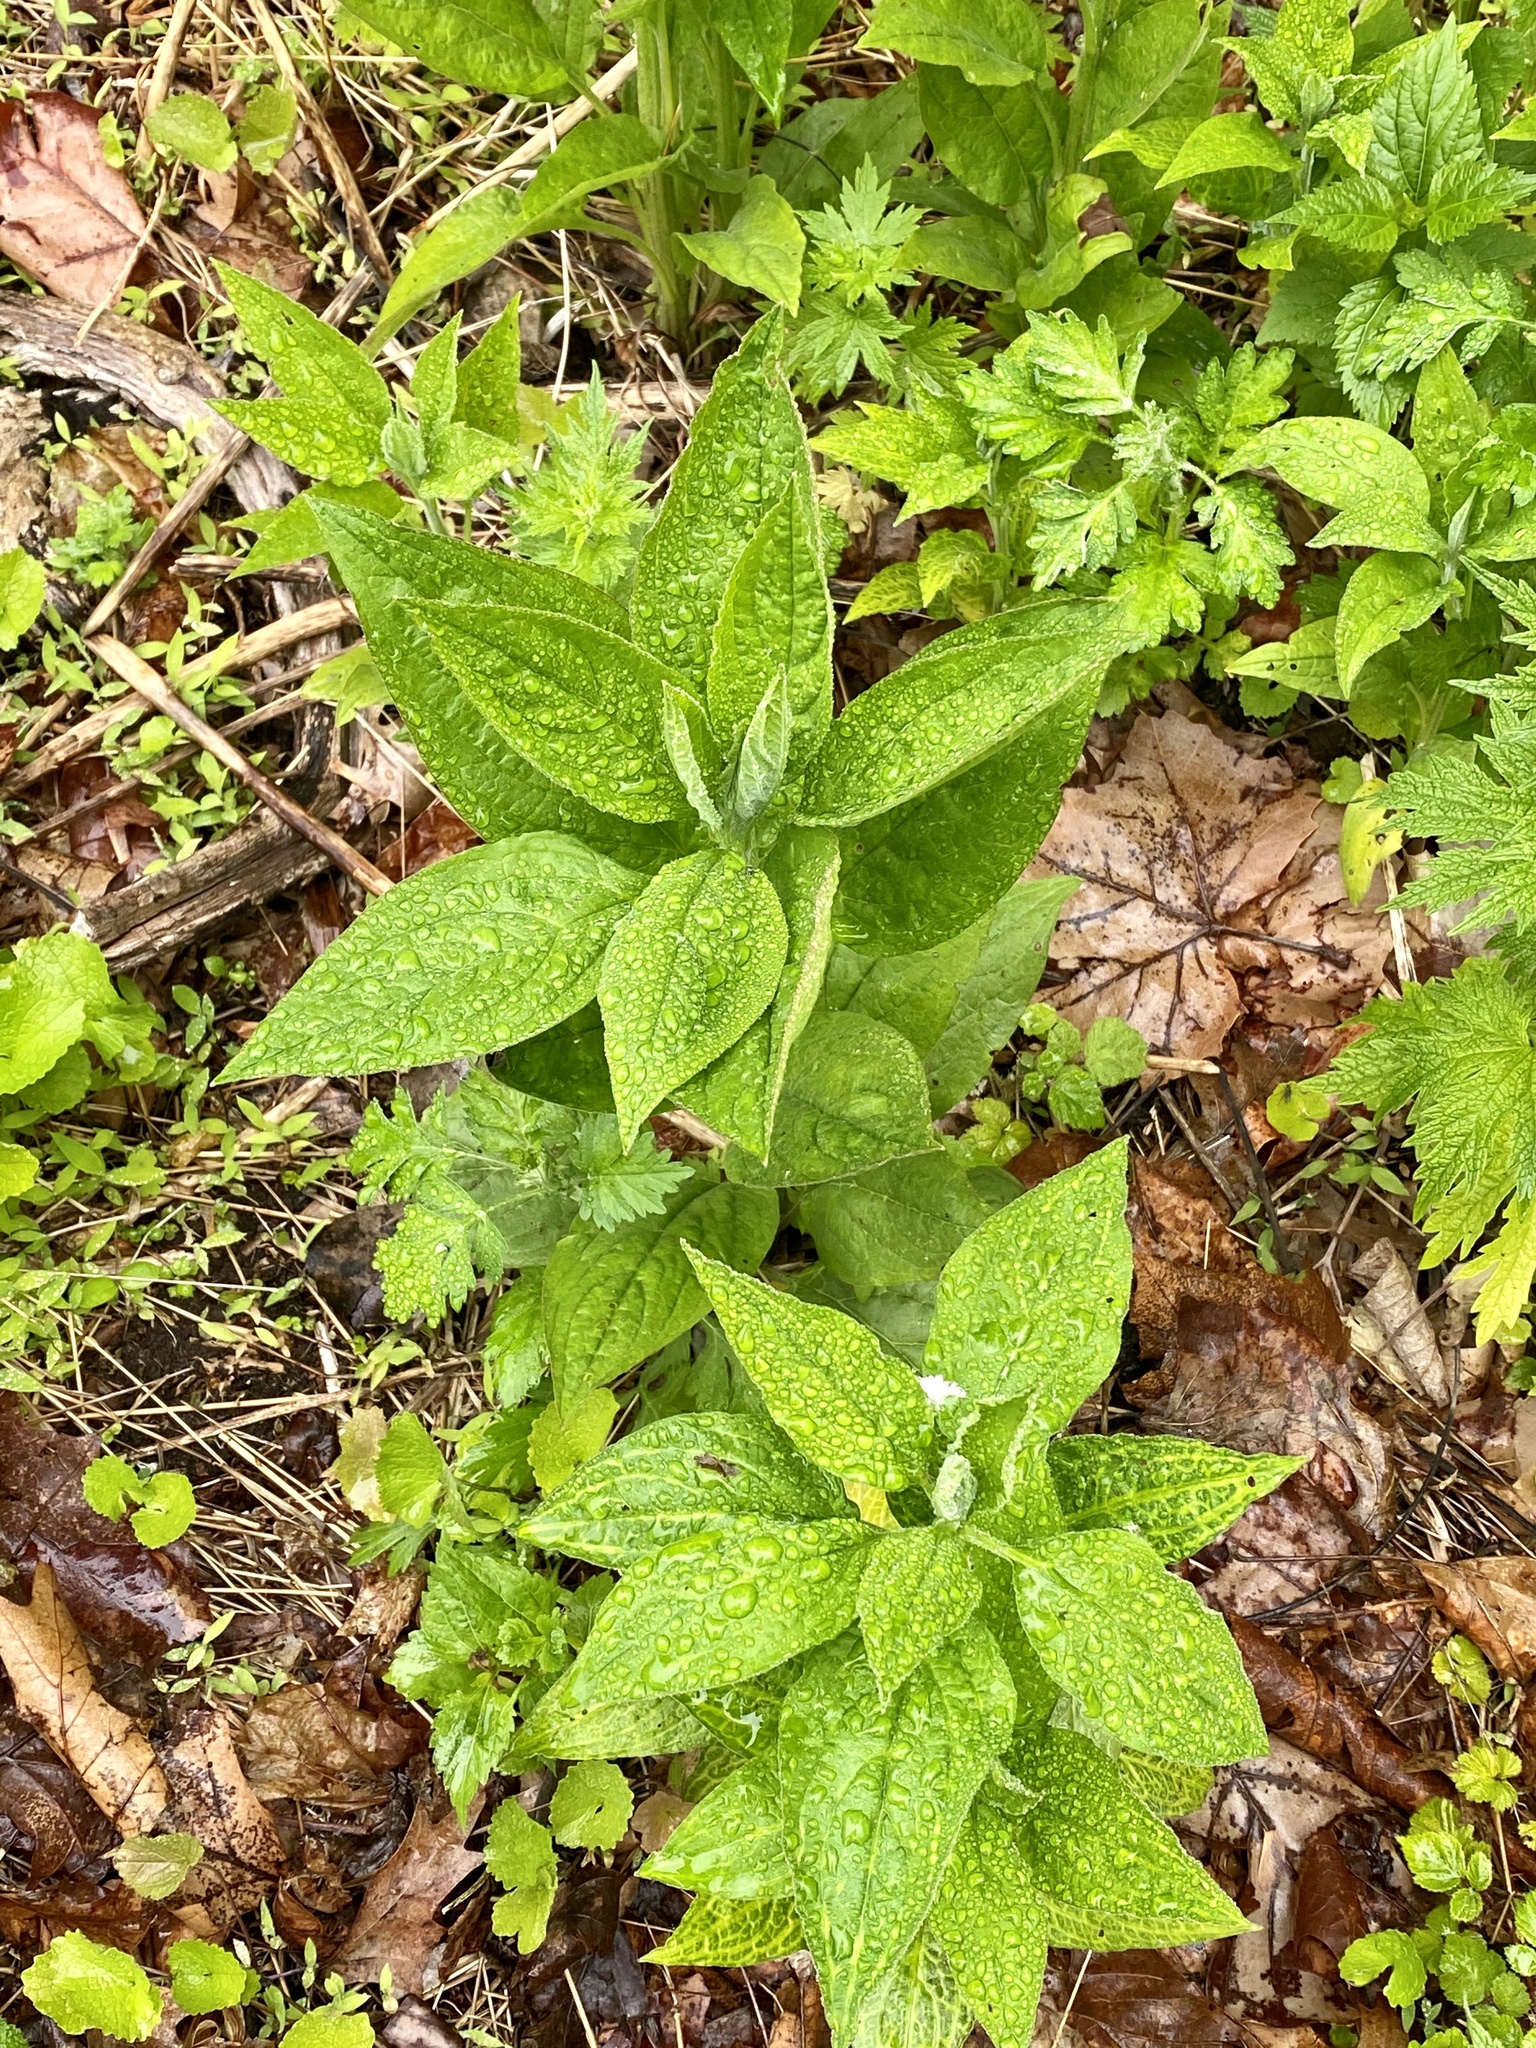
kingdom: Plantae
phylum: Tracheophyta
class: Magnoliopsida
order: Boraginales
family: Boraginaceae
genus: Hackelia
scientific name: Hackelia virginiana
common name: Beggar's-lice
